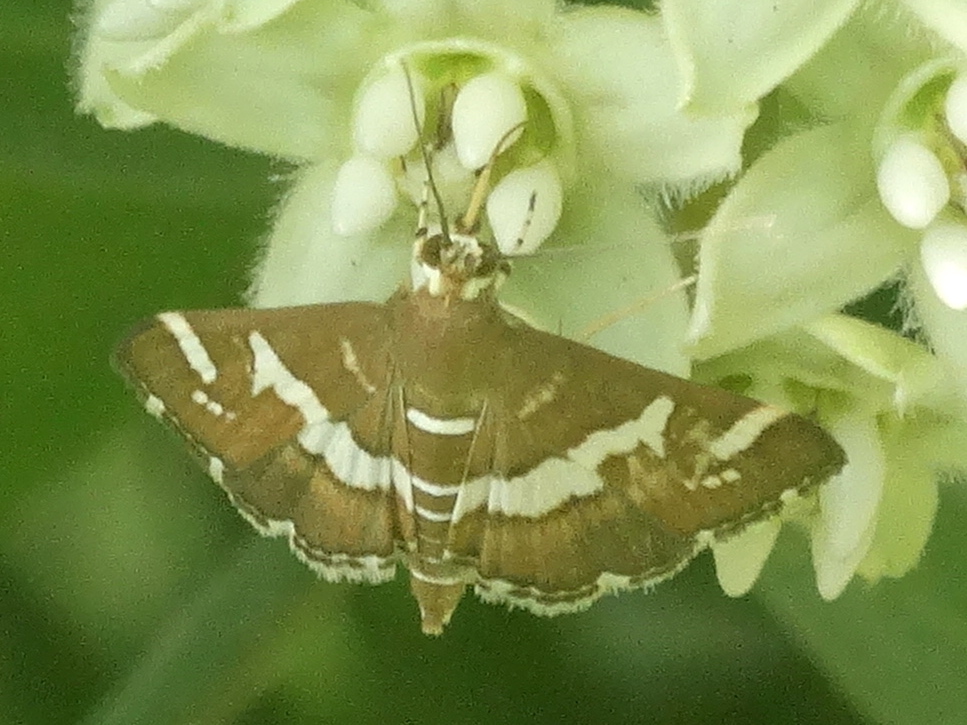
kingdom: Animalia
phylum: Arthropoda
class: Insecta
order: Lepidoptera
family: Crambidae
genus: Spoladea
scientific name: Spoladea recurvalis
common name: Beet webworm moth
